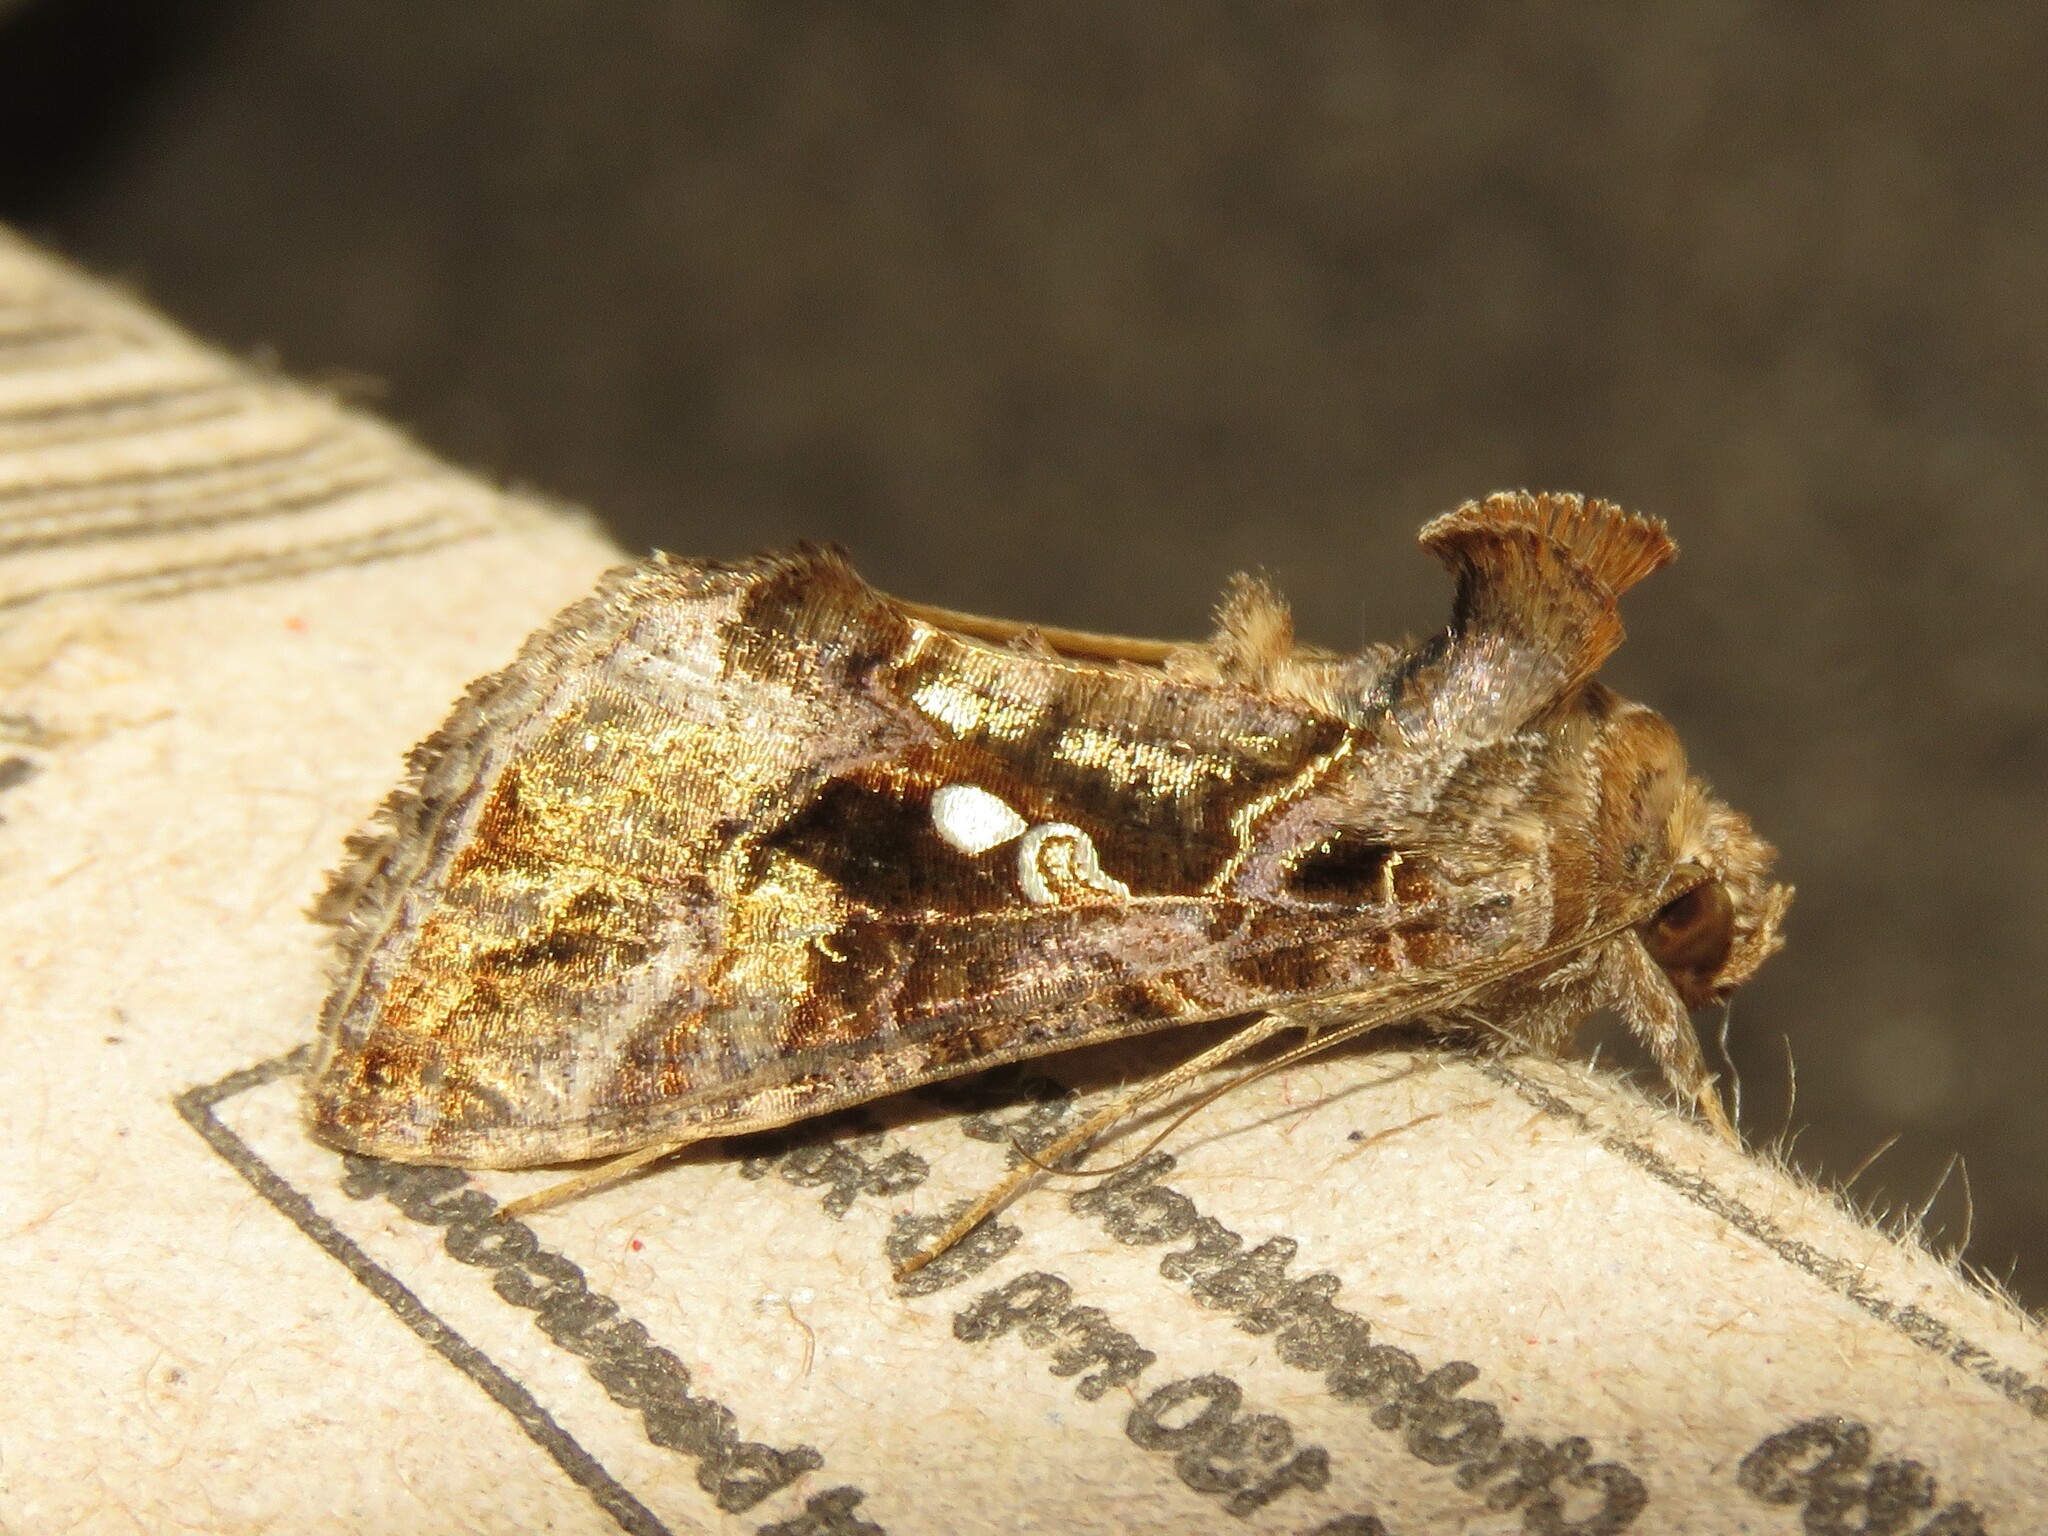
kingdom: Animalia
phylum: Arthropoda
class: Insecta
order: Lepidoptera
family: Noctuidae
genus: Chrysodeixis
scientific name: Chrysodeixis includens
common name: Cutworm moth
